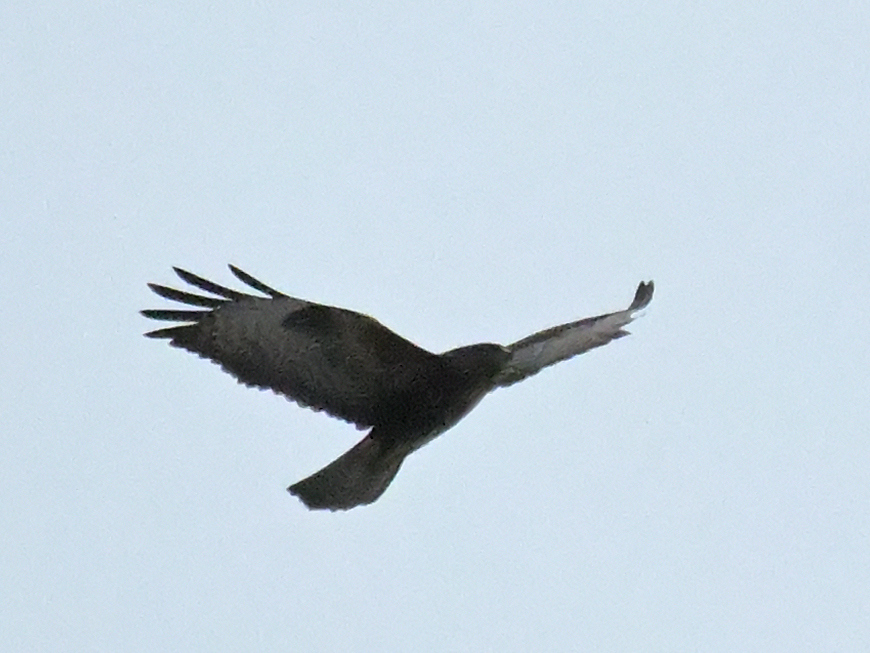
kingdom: Animalia
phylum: Chordata
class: Aves
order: Accipitriformes
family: Accipitridae
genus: Buteo
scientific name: Buteo buteo
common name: Common buzzard
